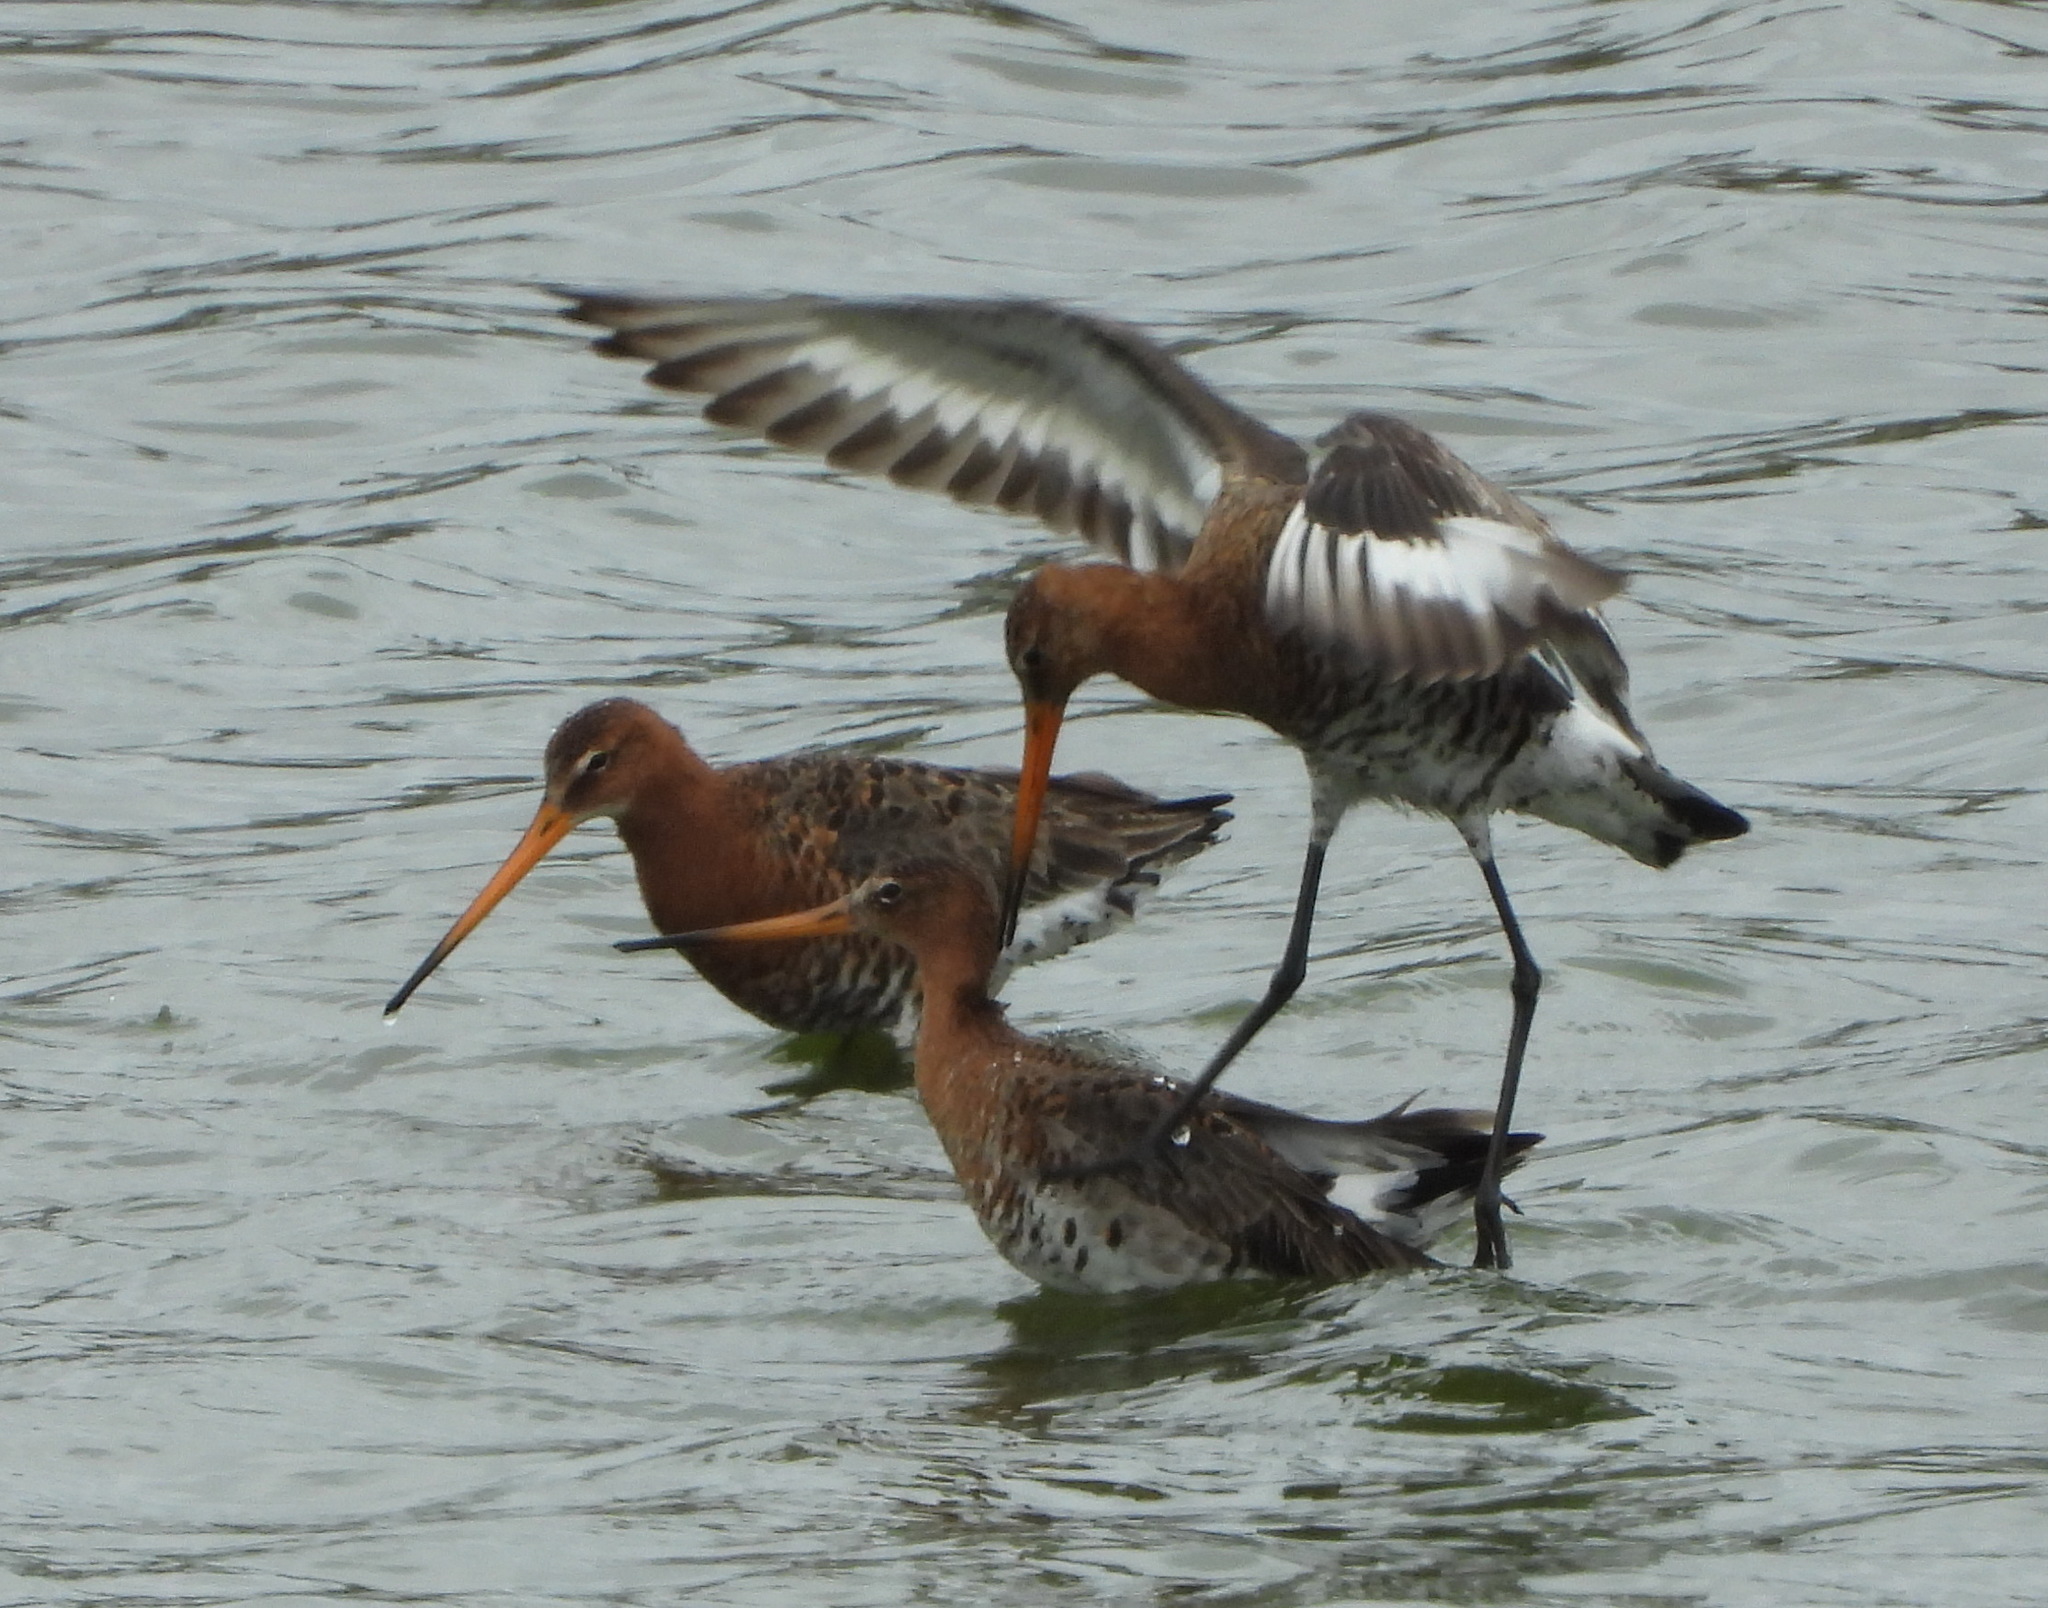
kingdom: Animalia
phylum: Chordata
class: Aves
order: Charadriiformes
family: Scolopacidae
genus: Limosa
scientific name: Limosa limosa
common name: Black-tailed godwit
